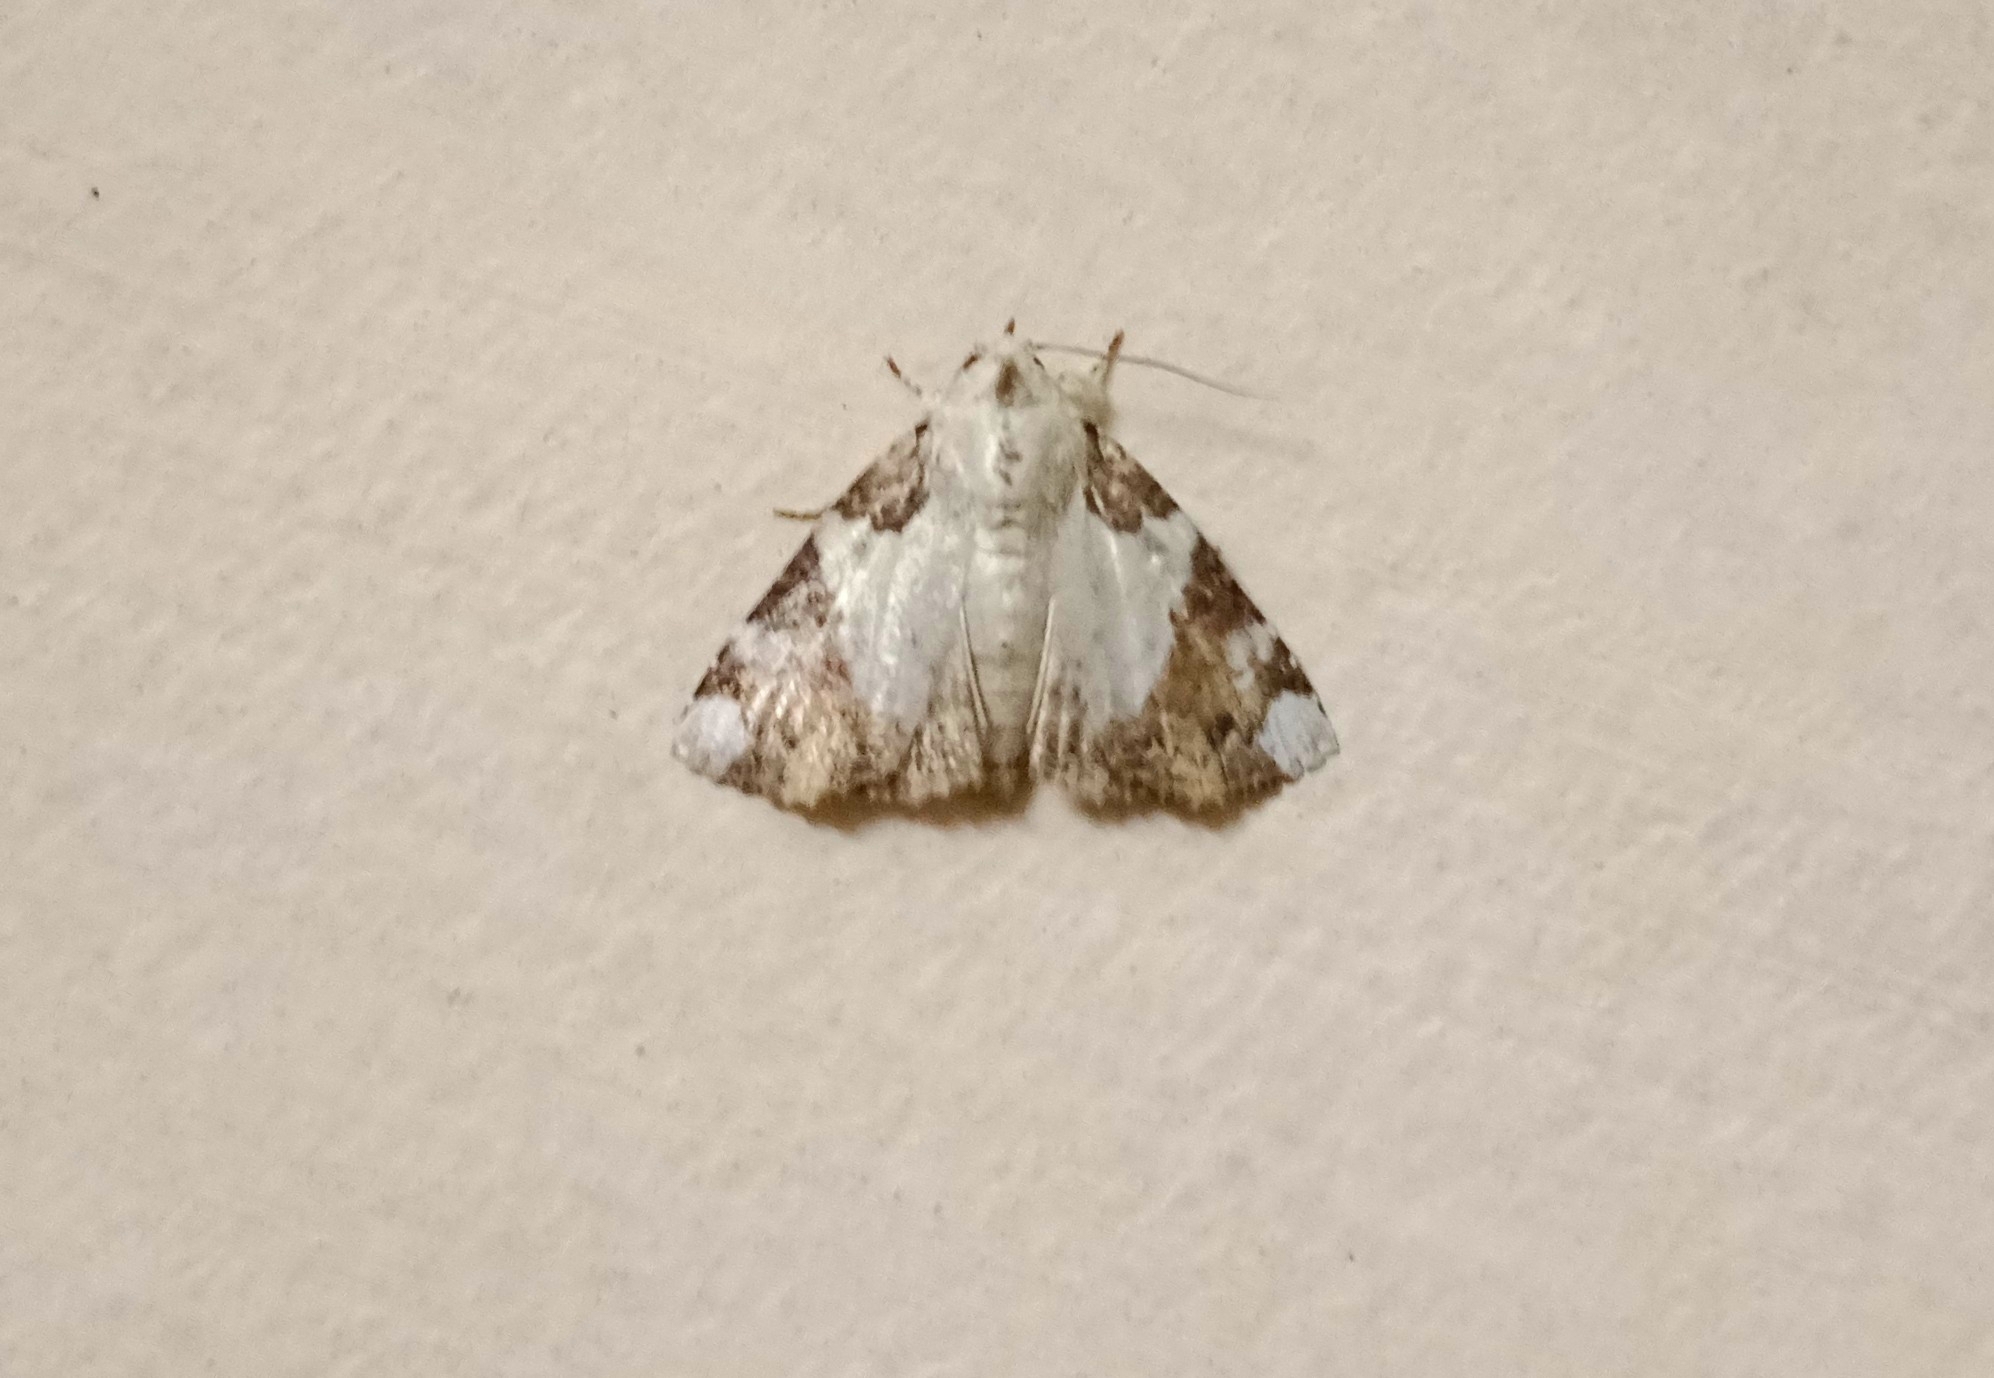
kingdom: Animalia
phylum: Arthropoda
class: Insecta
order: Lepidoptera
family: Nolidae
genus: Beana
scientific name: Beana terminigera
